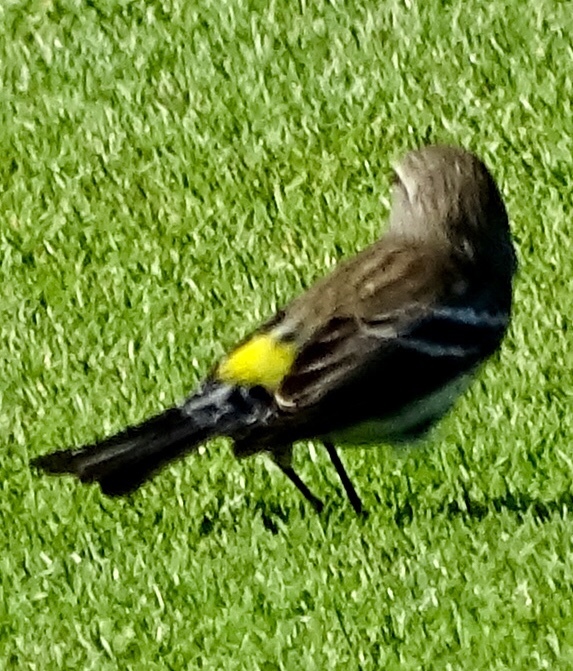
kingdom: Animalia
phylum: Chordata
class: Aves
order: Passeriformes
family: Parulidae
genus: Setophaga
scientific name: Setophaga coronata
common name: Myrtle warbler
